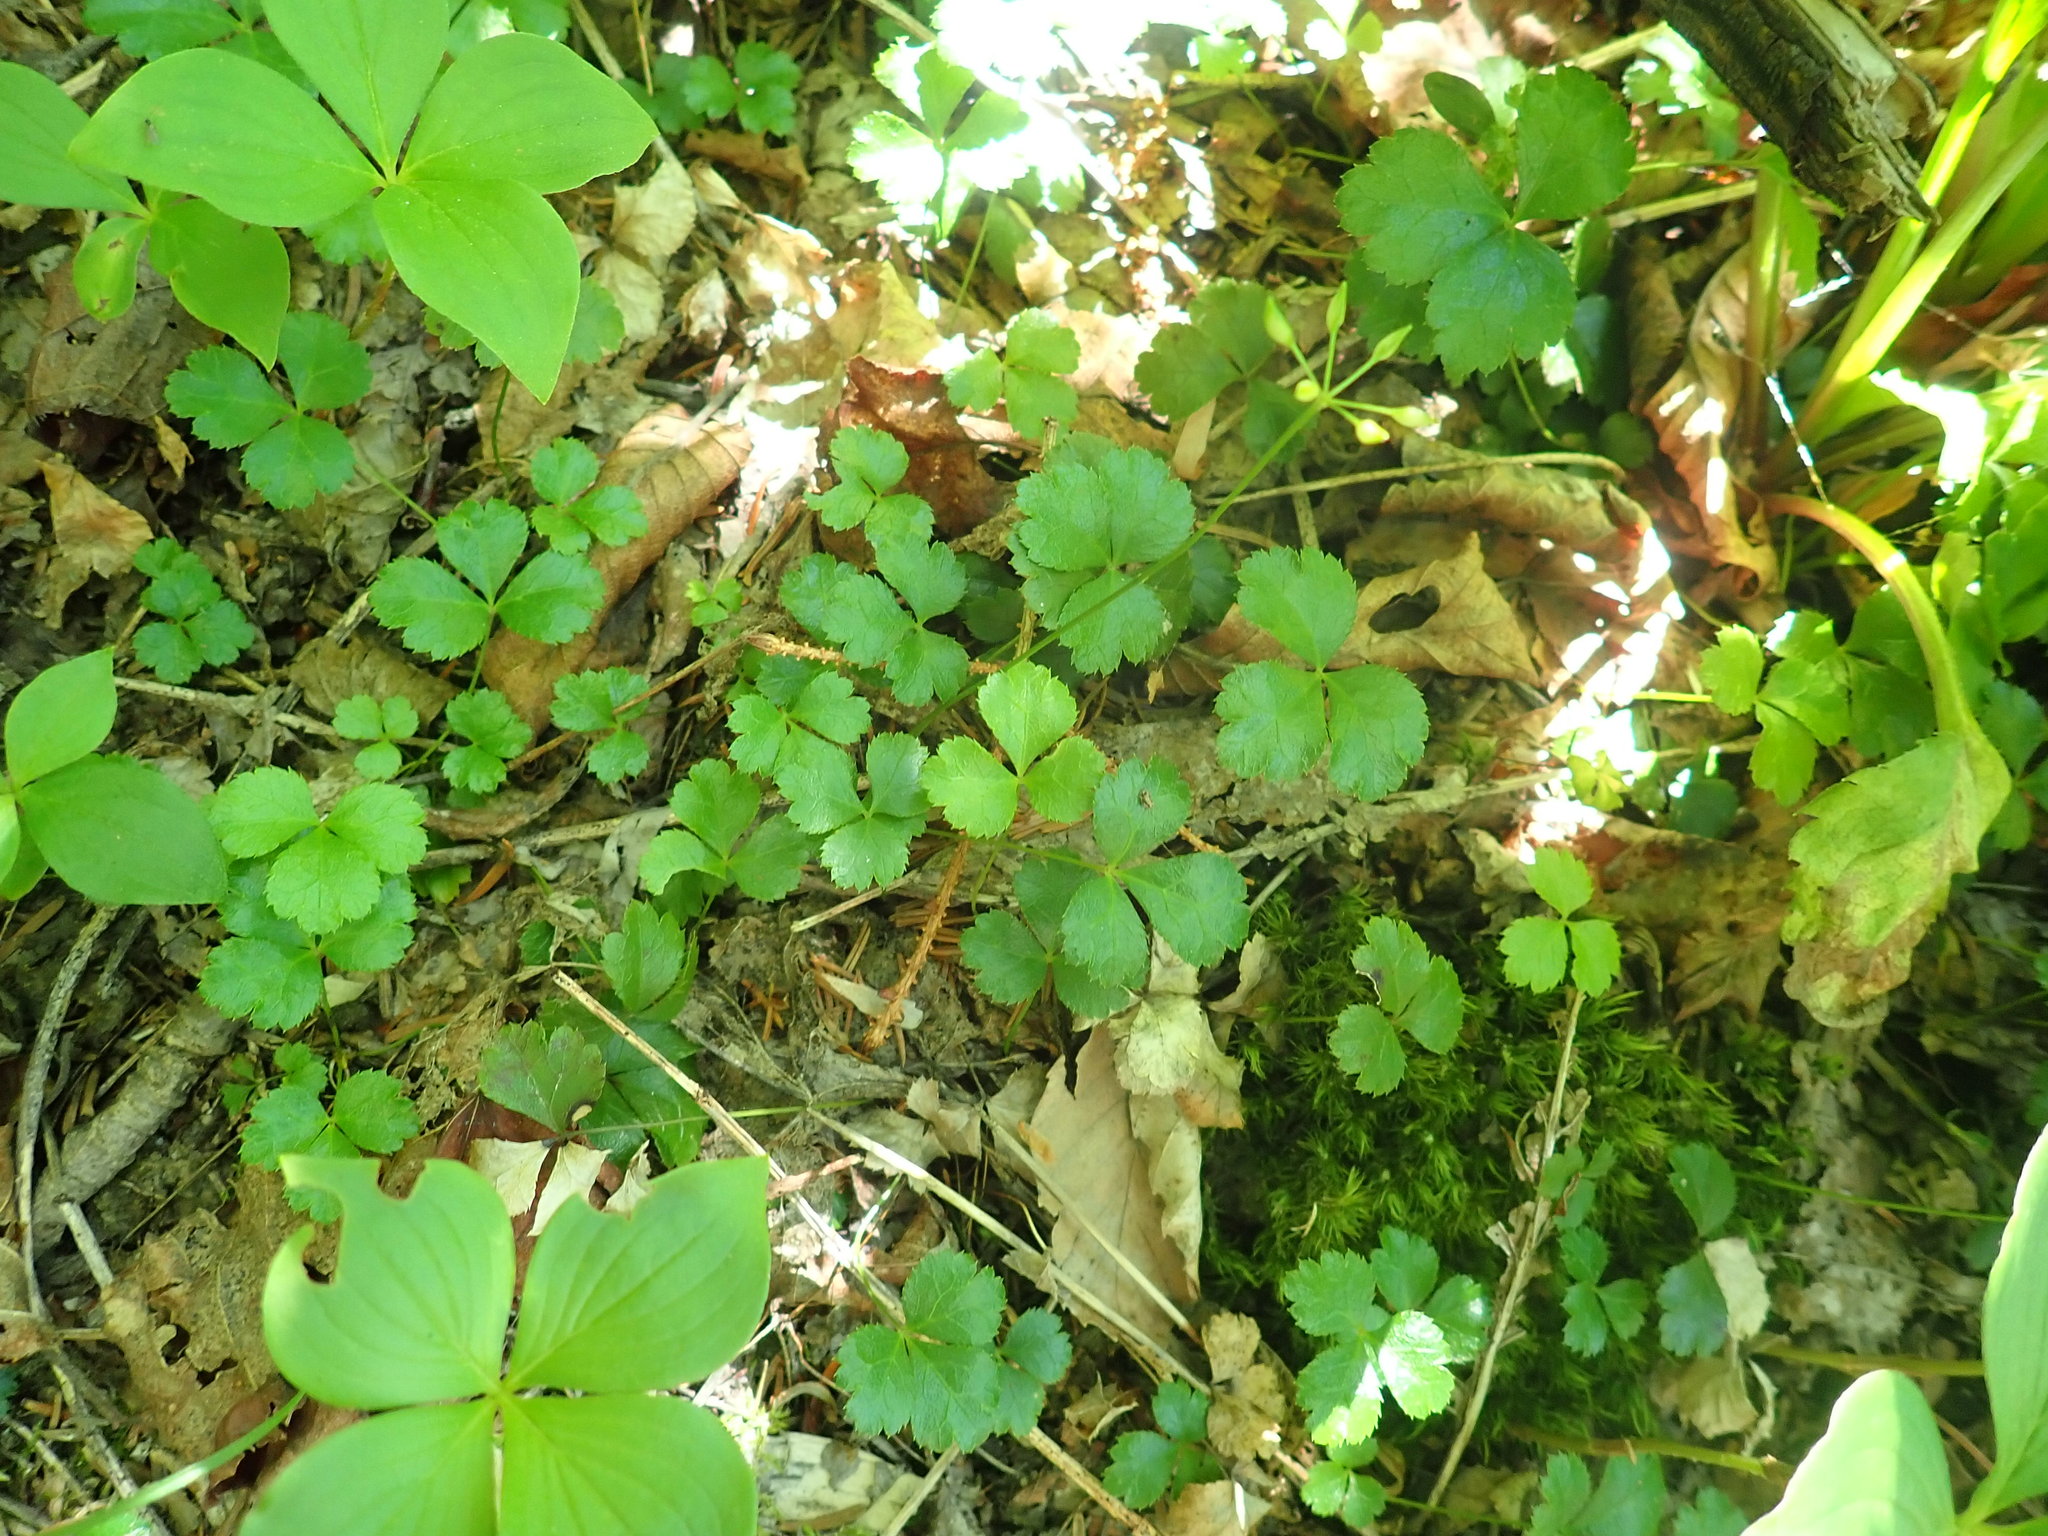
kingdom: Plantae
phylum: Tracheophyta
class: Magnoliopsida
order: Ranunculales
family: Ranunculaceae
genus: Coptis
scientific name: Coptis trifolia
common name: Canker-root
